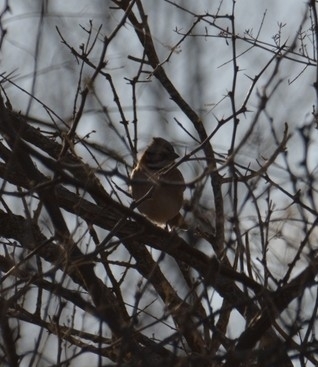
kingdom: Animalia
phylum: Chordata
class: Aves
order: Passeriformes
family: Passerellidae
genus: Zonotrichia
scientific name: Zonotrichia capensis
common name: Rufous-collared sparrow
